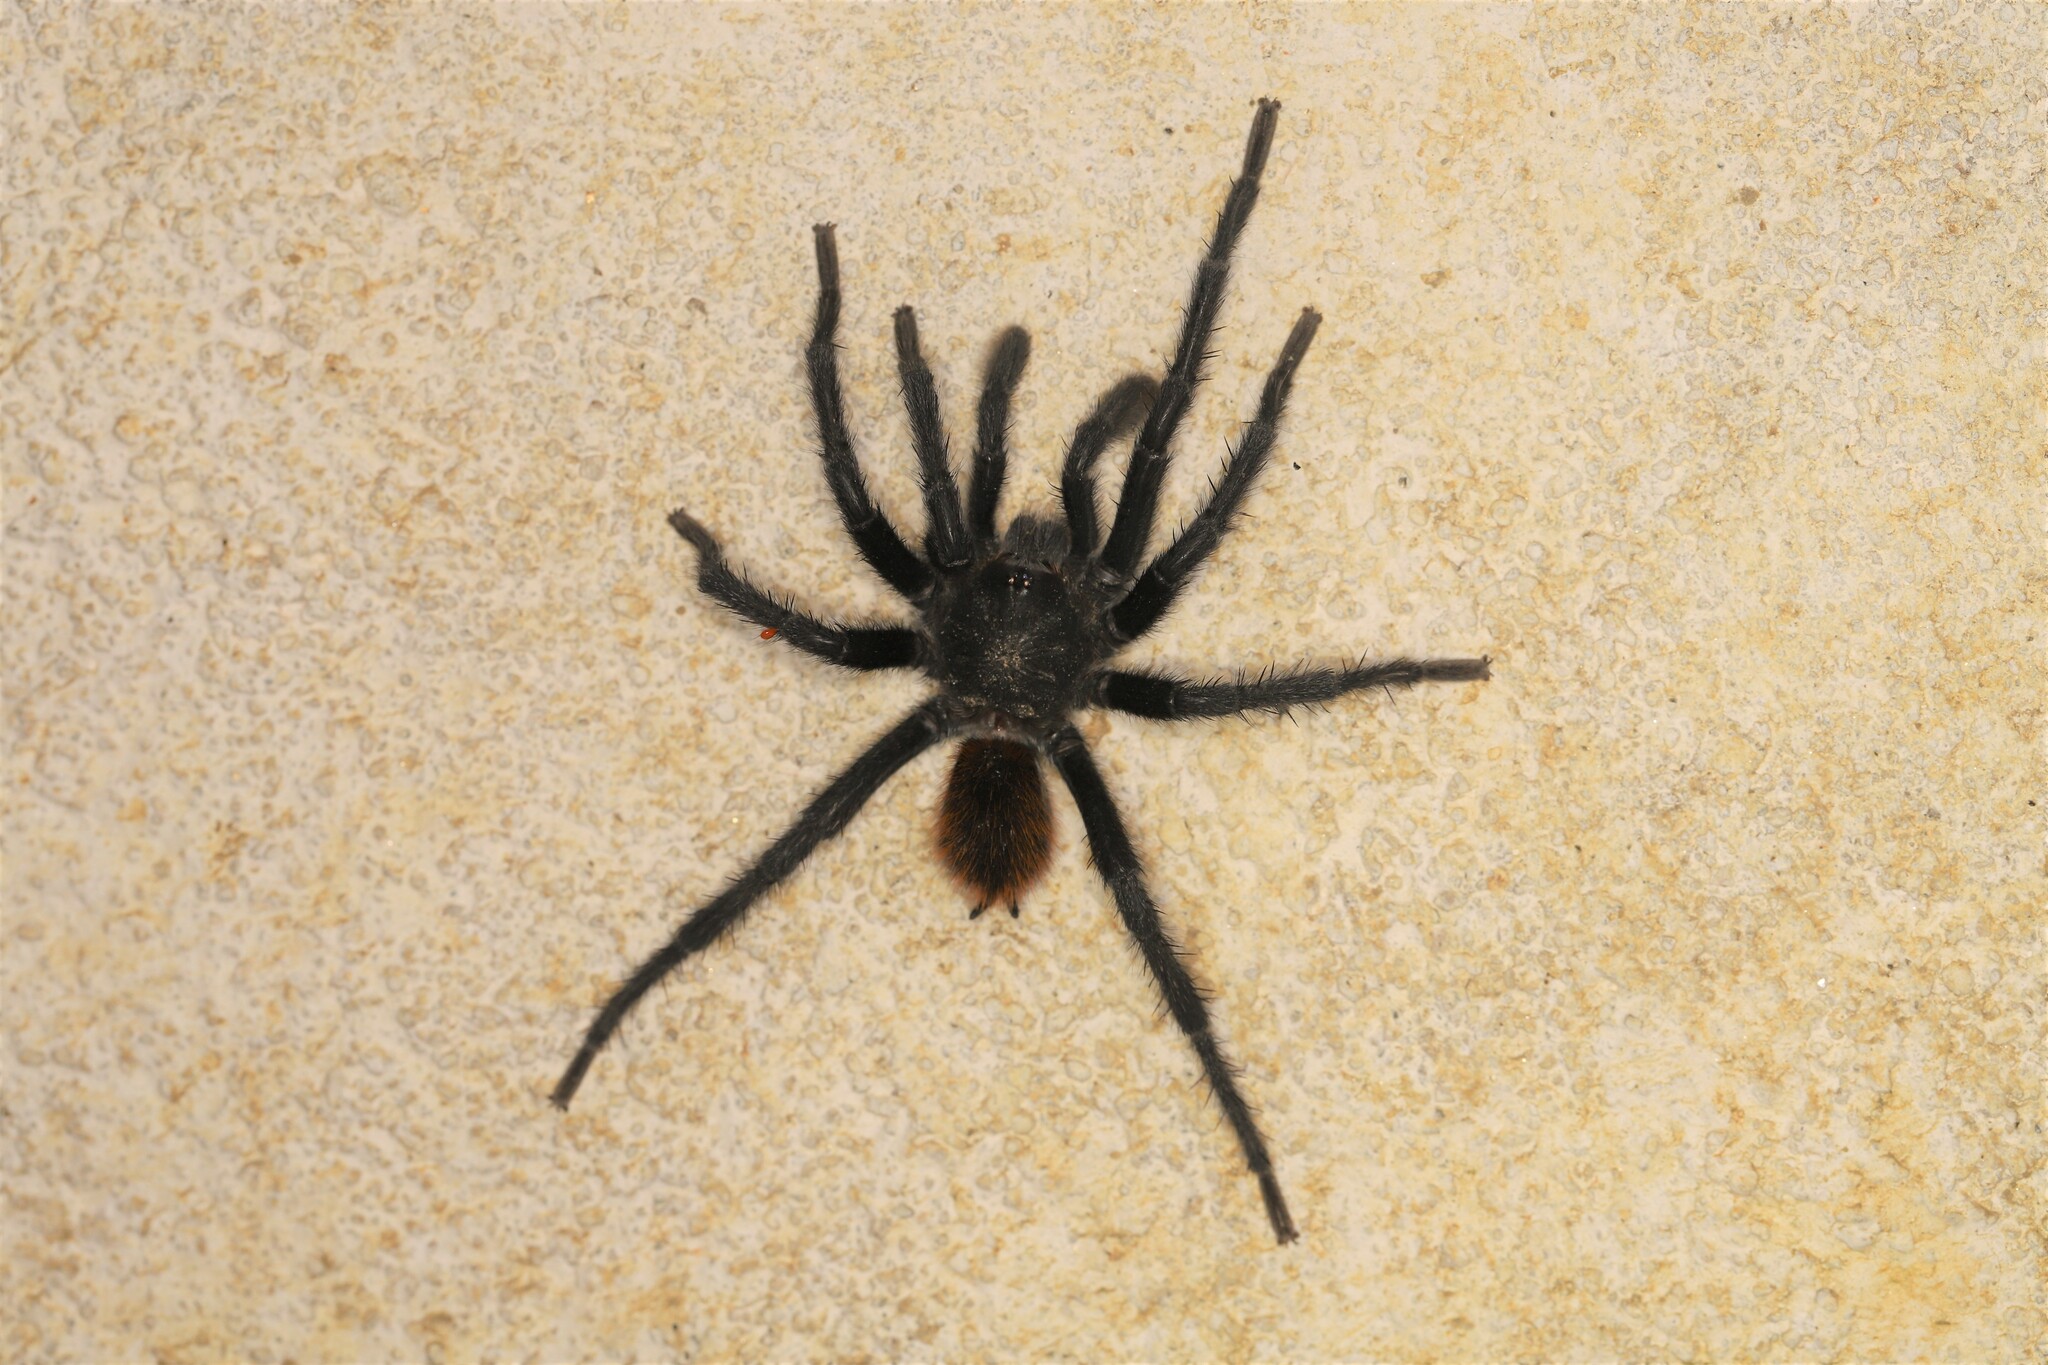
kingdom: Animalia
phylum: Arthropoda
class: Arachnida
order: Araneae
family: Theraphosidae
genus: Kankuamo
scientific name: Kankuamo marquezi
